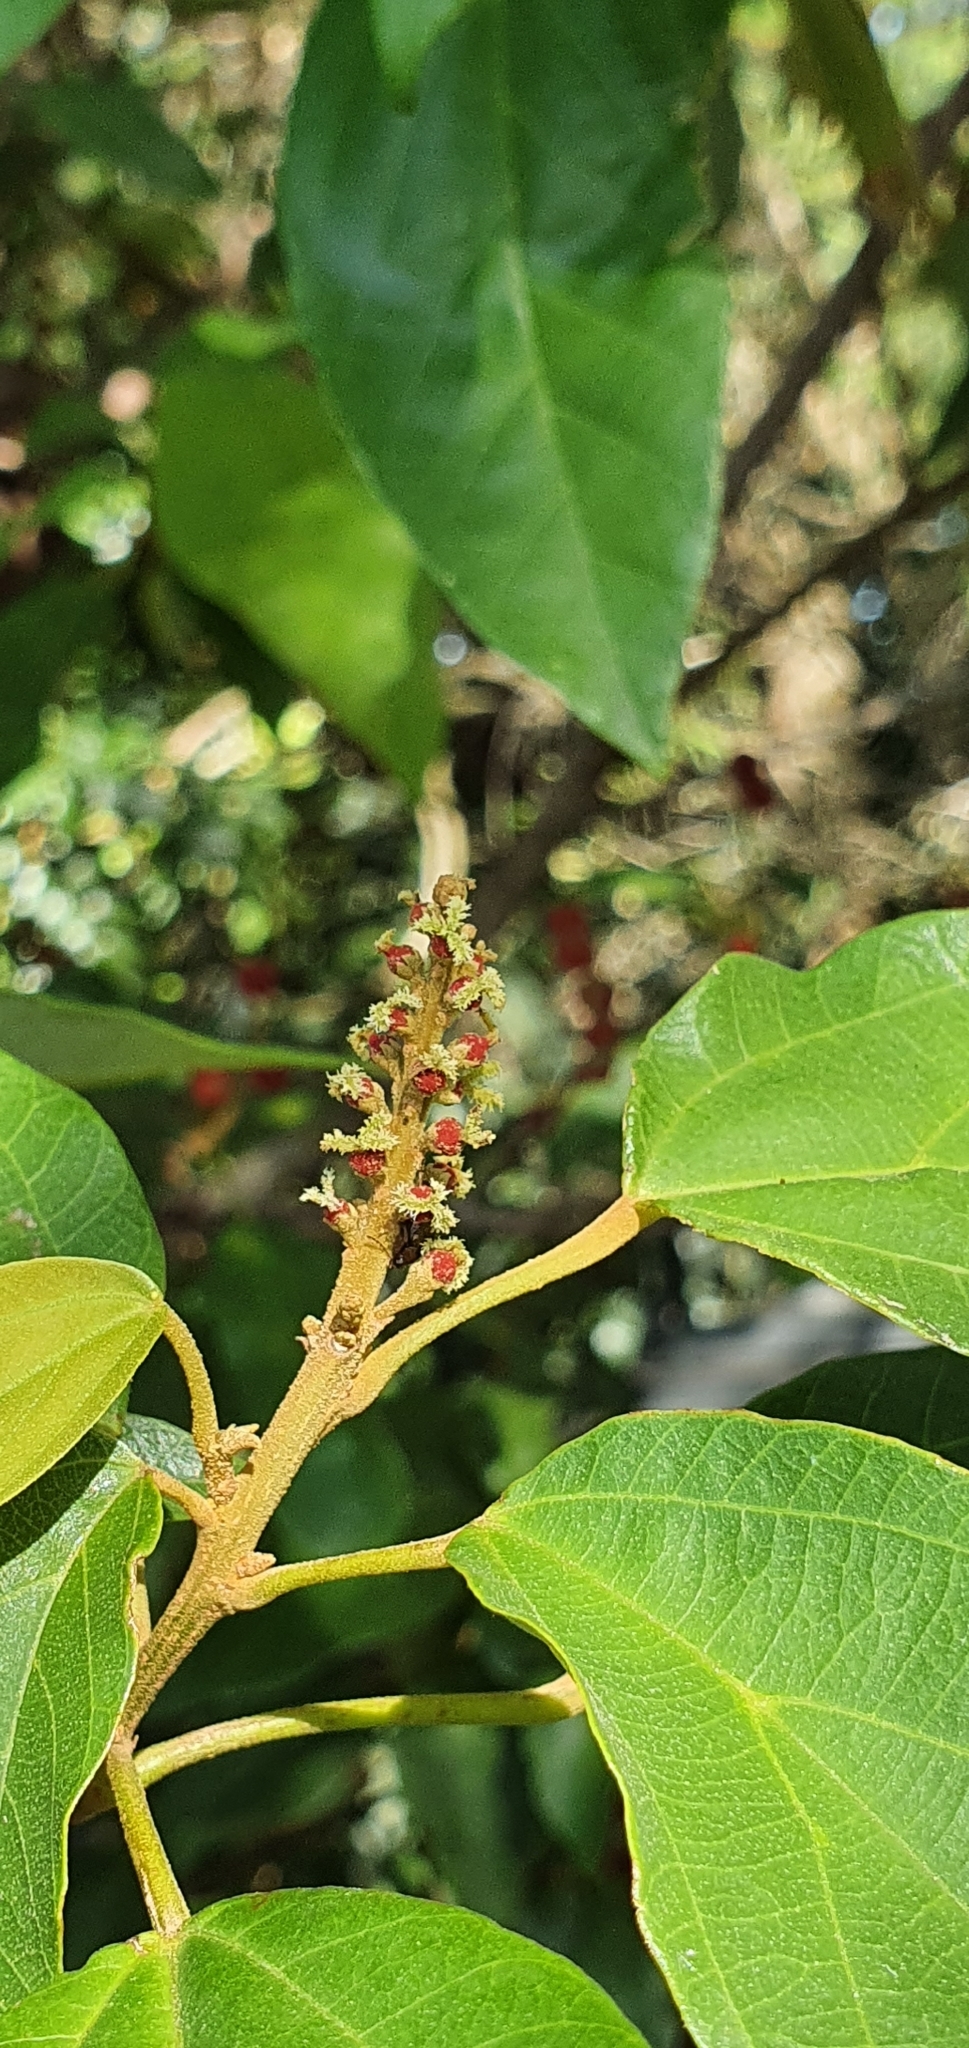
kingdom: Plantae
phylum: Tracheophyta
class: Magnoliopsida
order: Malpighiales
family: Euphorbiaceae
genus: Mallotus
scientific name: Mallotus philippensis
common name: Kamala tree
